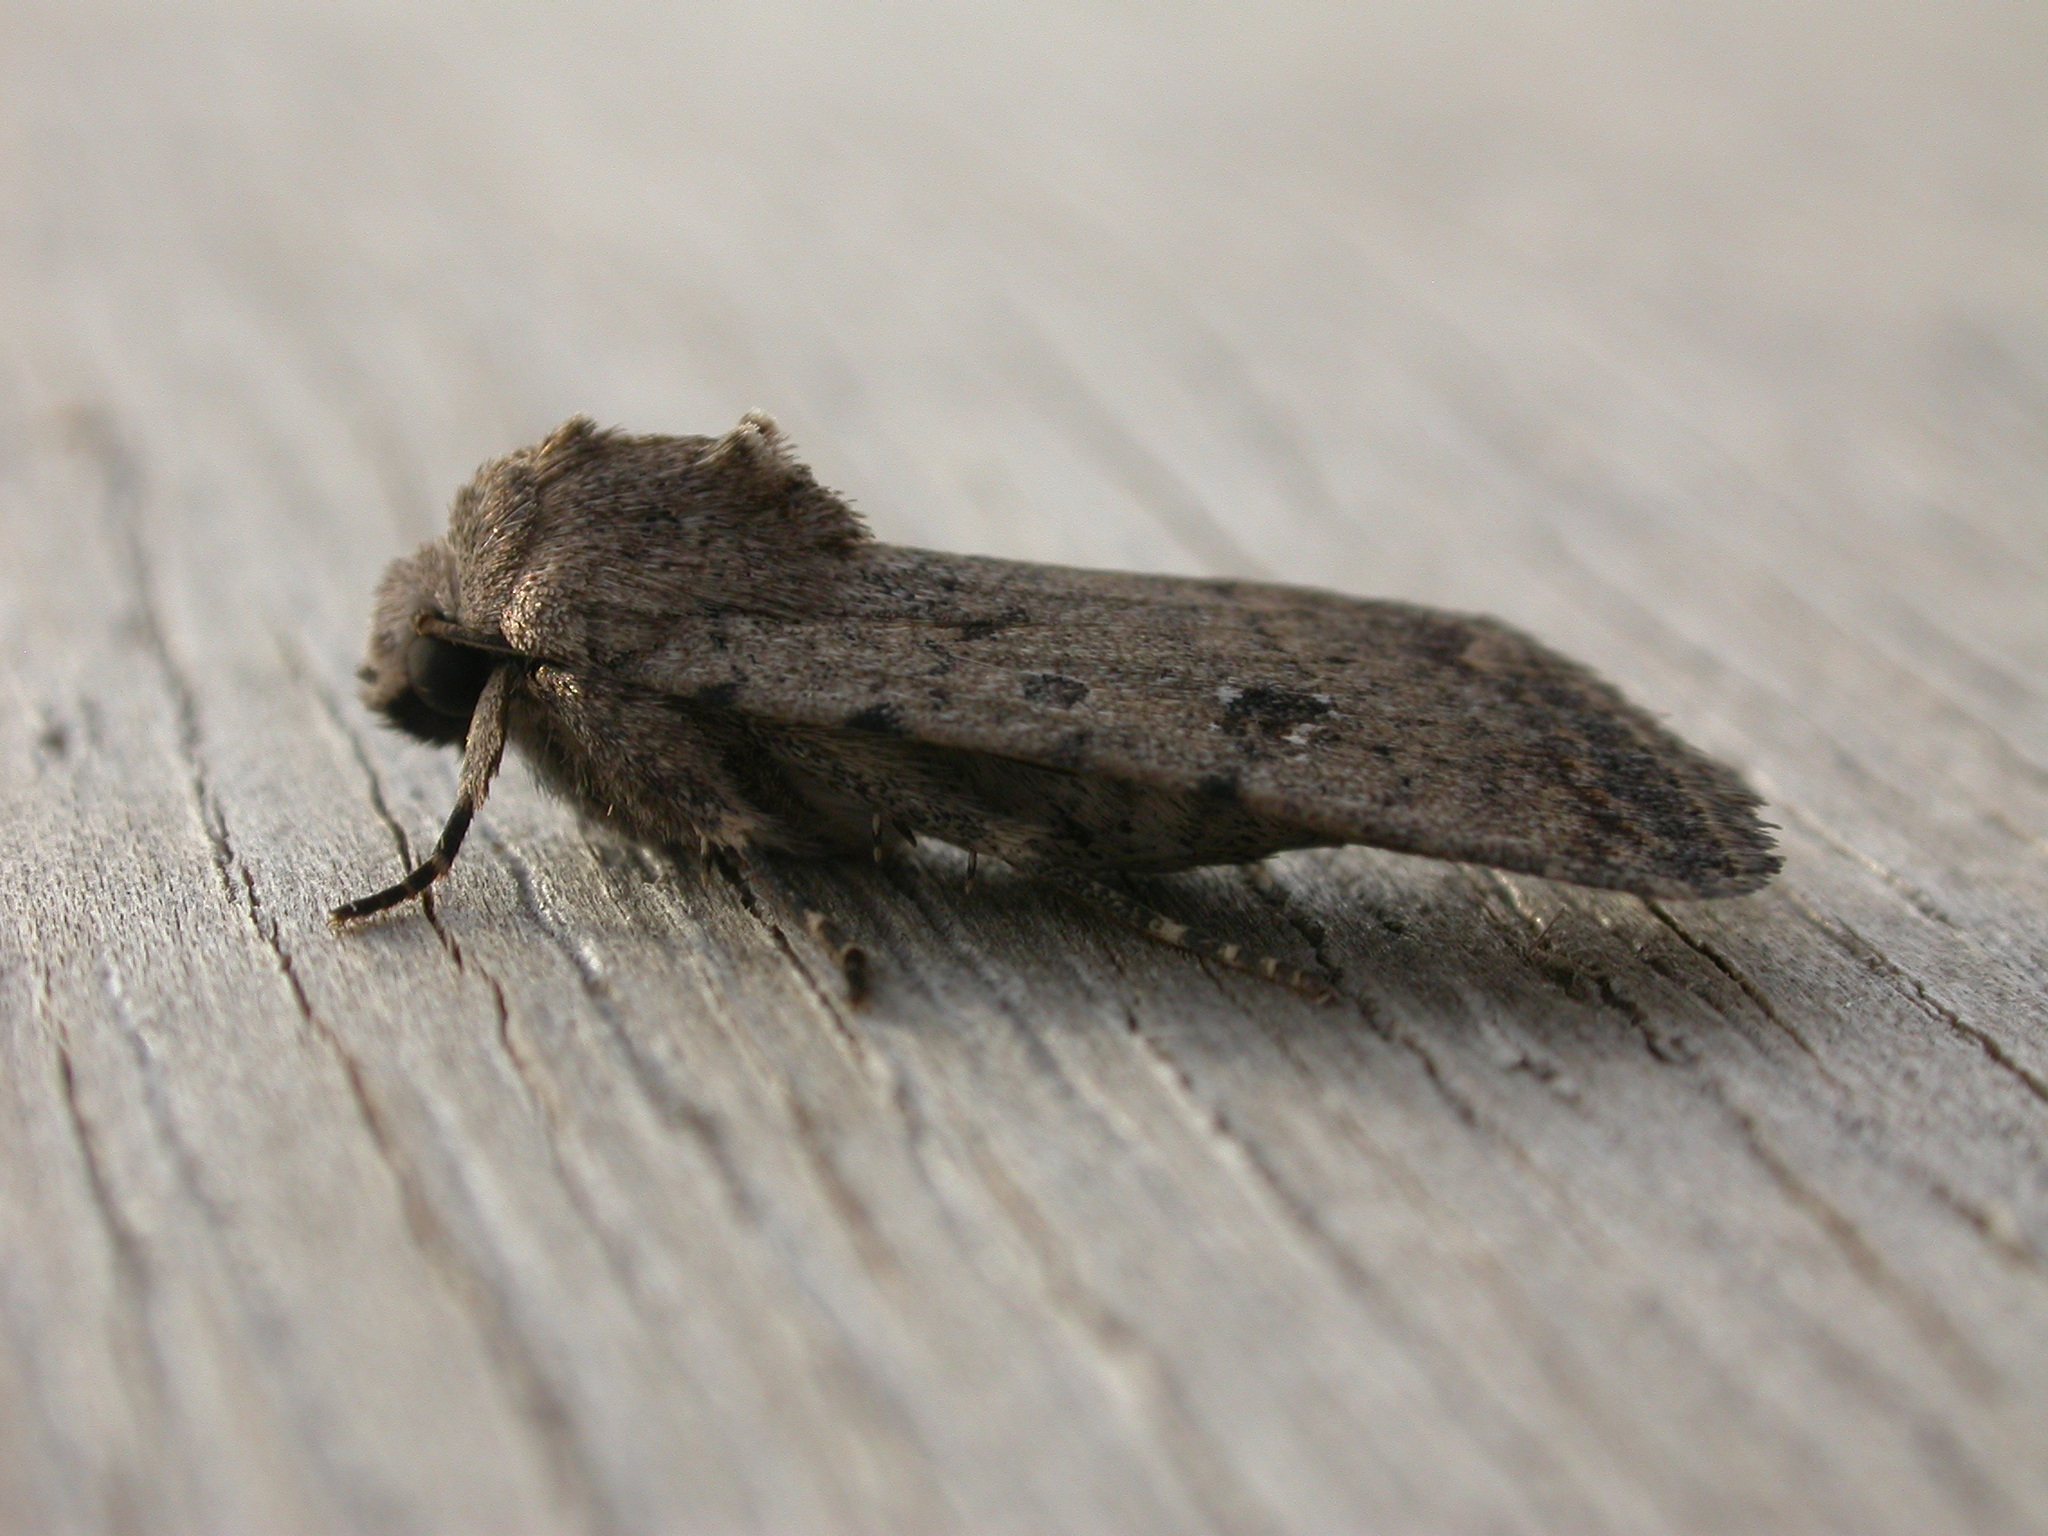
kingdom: Animalia
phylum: Arthropoda
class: Insecta
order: Lepidoptera
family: Noctuidae
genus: Caradrina
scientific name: Caradrina clavipalpis
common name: Pale mottled willow
